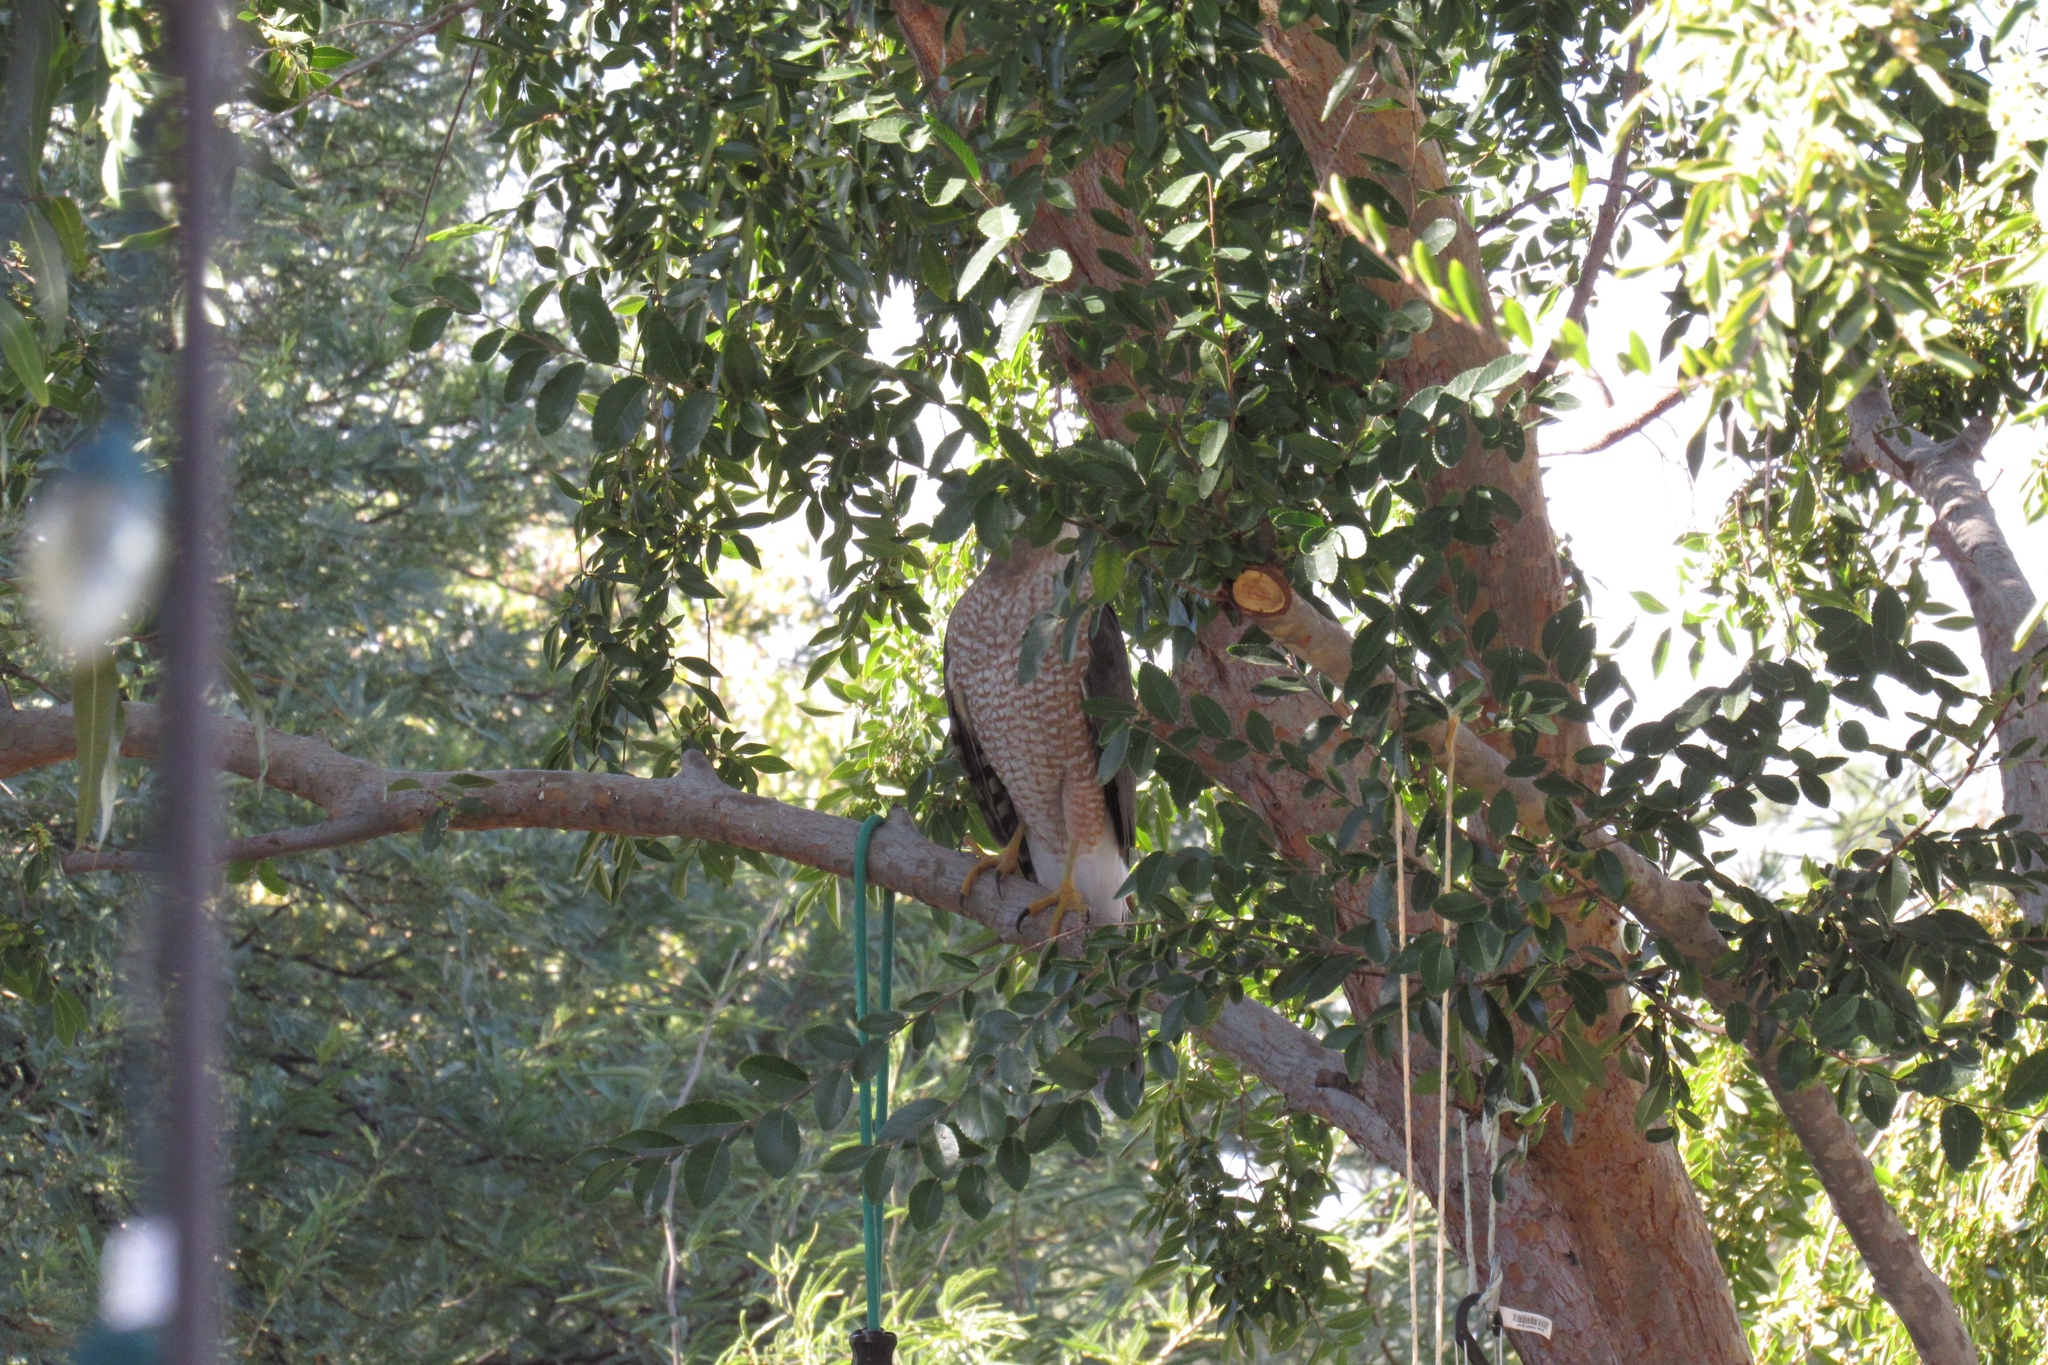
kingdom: Animalia
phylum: Chordata
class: Aves
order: Accipitriformes
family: Accipitridae
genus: Accipiter
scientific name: Accipiter cooperii
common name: Cooper's hawk
